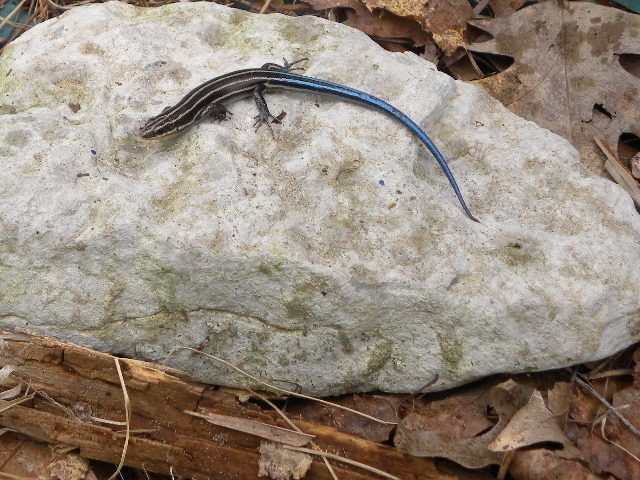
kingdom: Animalia
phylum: Chordata
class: Squamata
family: Scincidae
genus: Plestiodon
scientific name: Plestiodon fasciatus
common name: Five-lined skink
